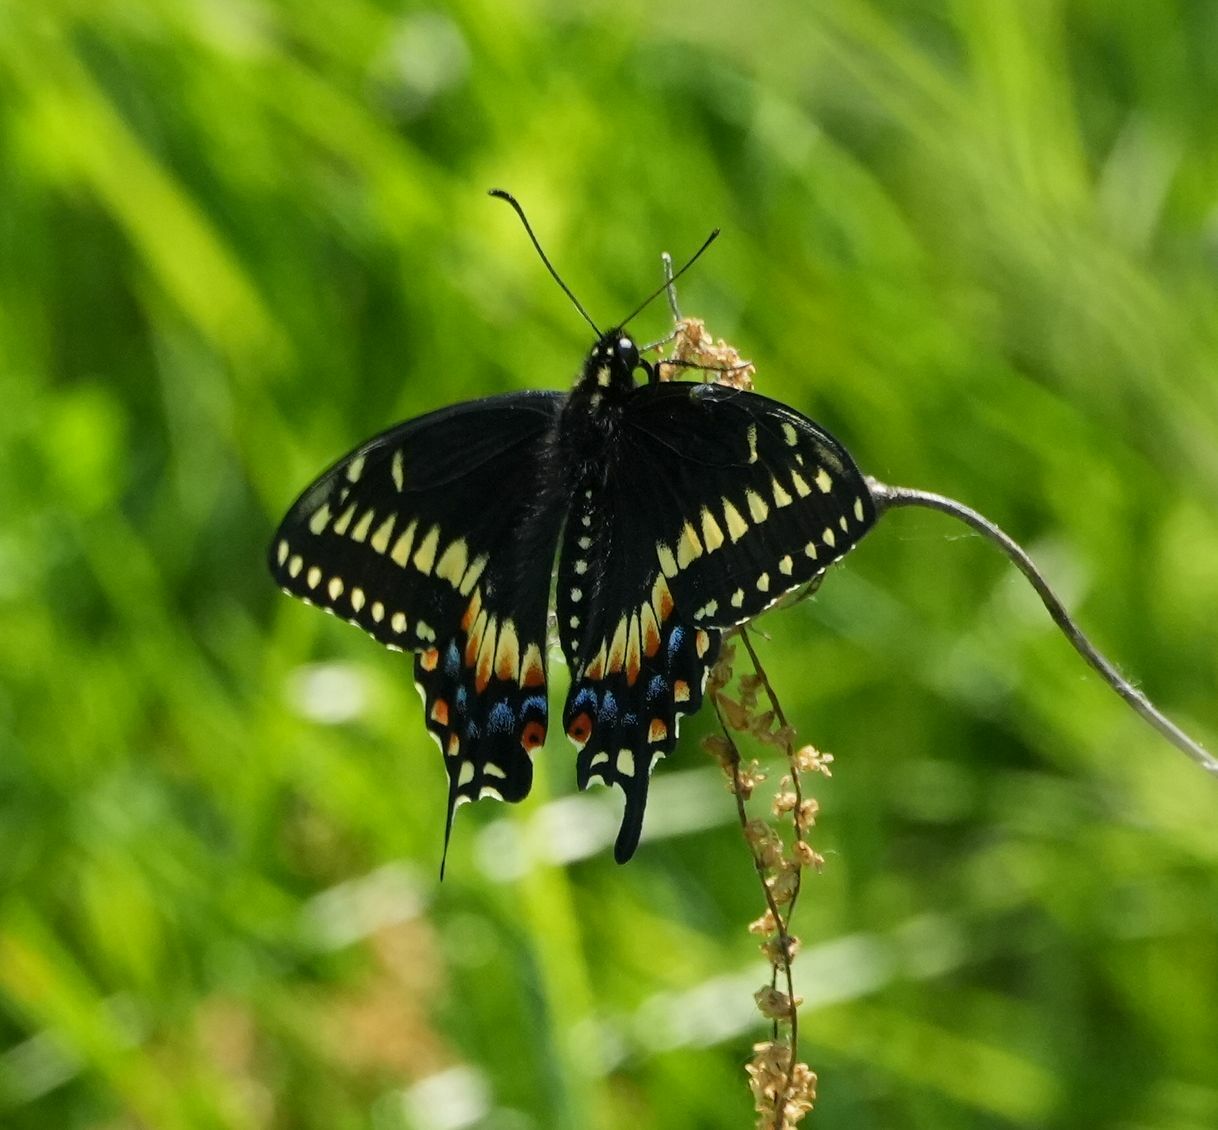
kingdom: Animalia
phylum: Arthropoda
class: Insecta
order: Lepidoptera
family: Papilionidae
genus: Papilio
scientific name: Papilio polyxenes
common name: Black swallowtail
